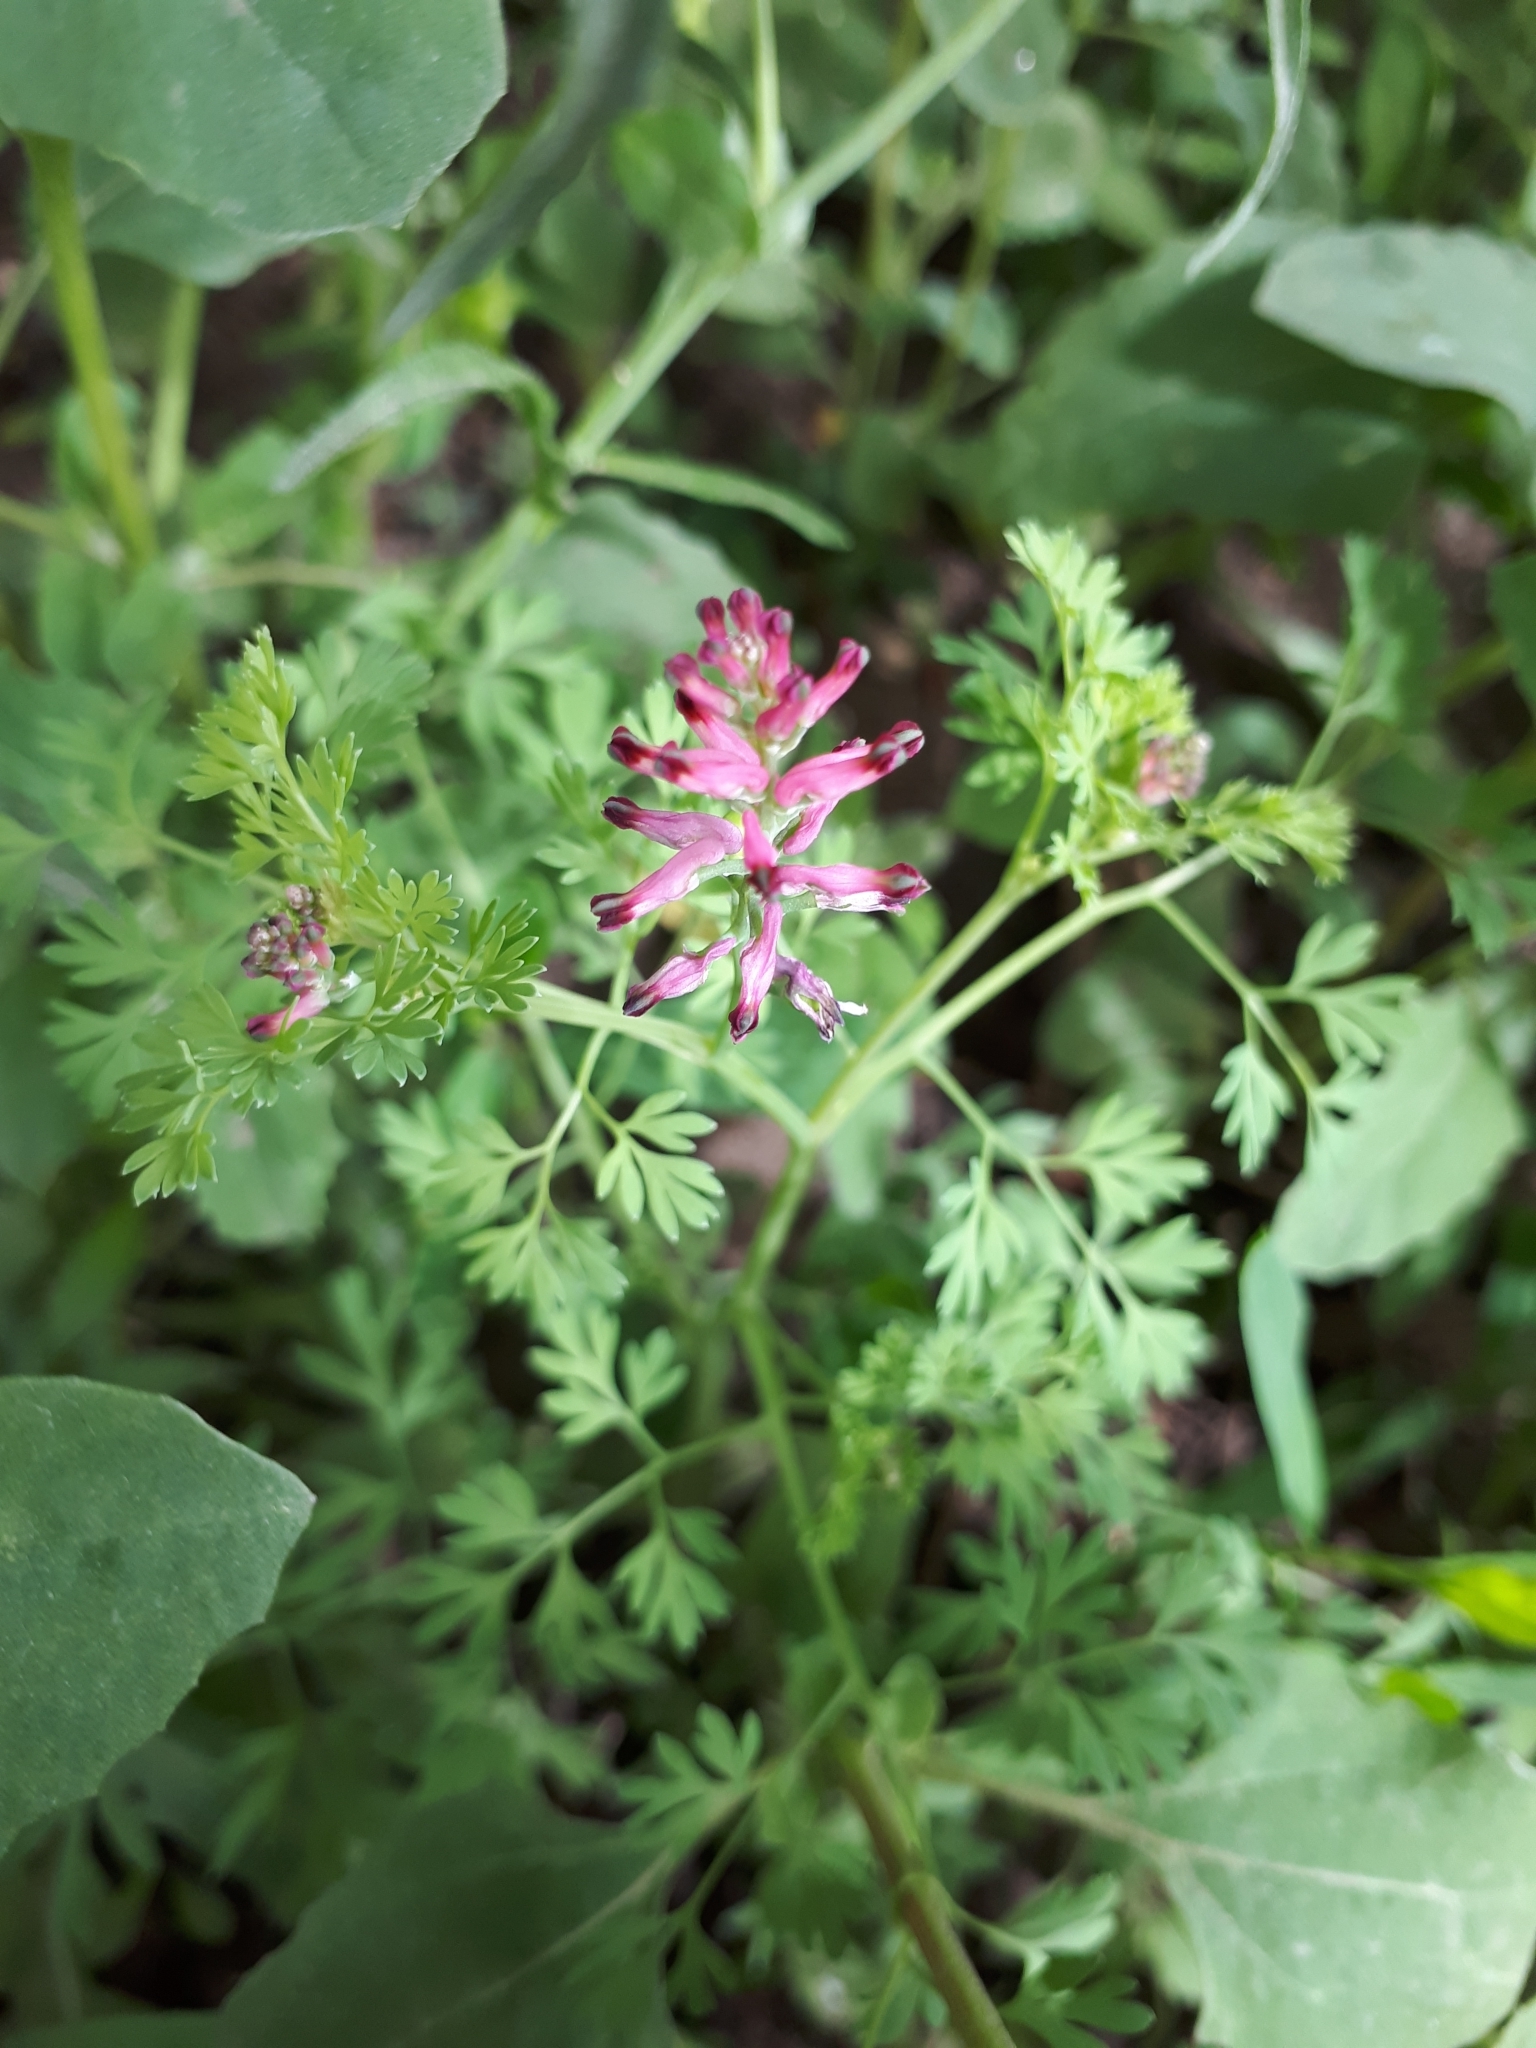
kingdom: Plantae
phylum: Tracheophyta
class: Magnoliopsida
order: Ranunculales
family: Papaveraceae
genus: Fumaria
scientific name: Fumaria officinalis
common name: Common fumitory
